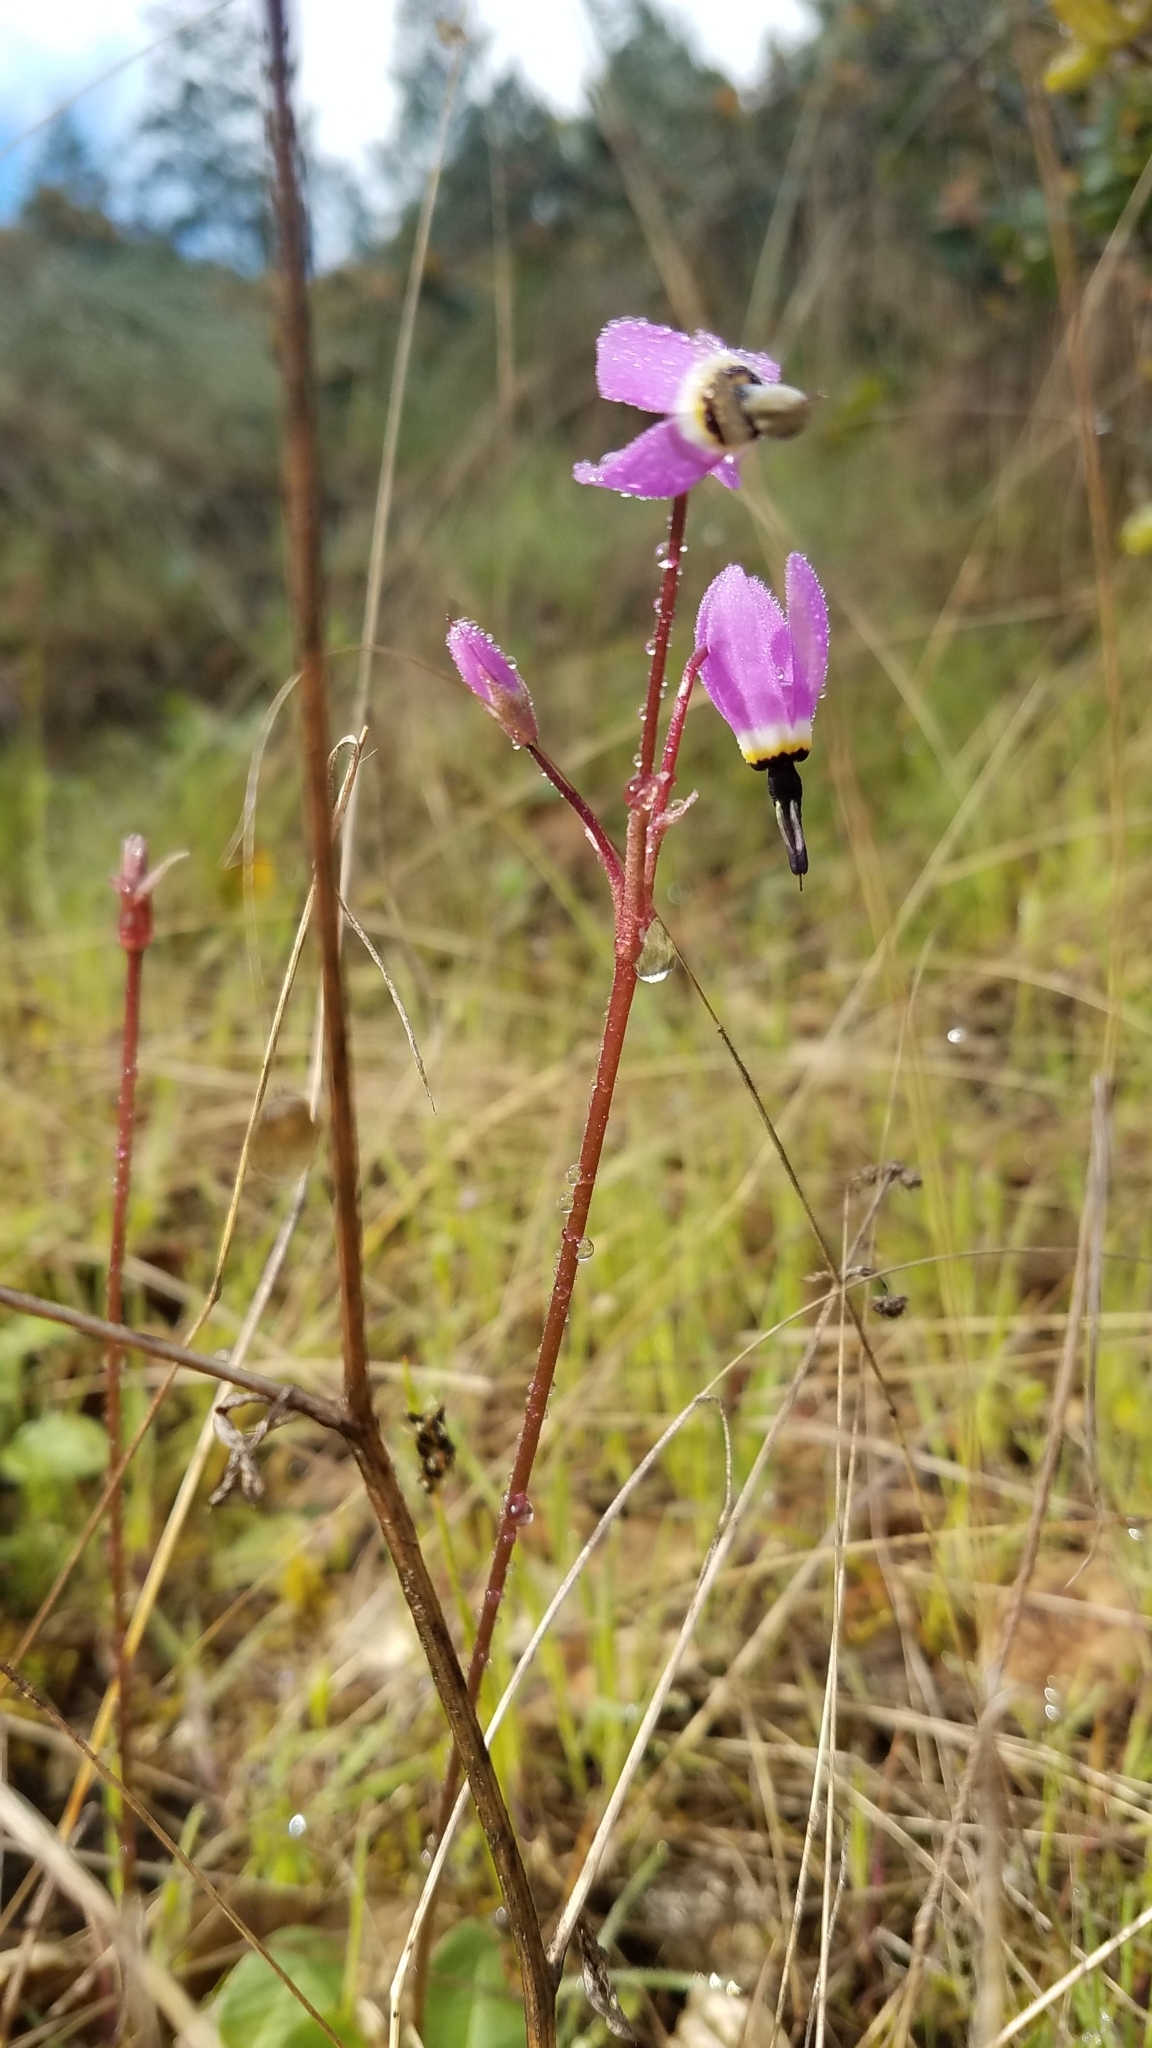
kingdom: Plantae
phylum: Tracheophyta
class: Magnoliopsida
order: Ericales
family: Primulaceae
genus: Dodecatheon
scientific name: Dodecatheon hendersonii
